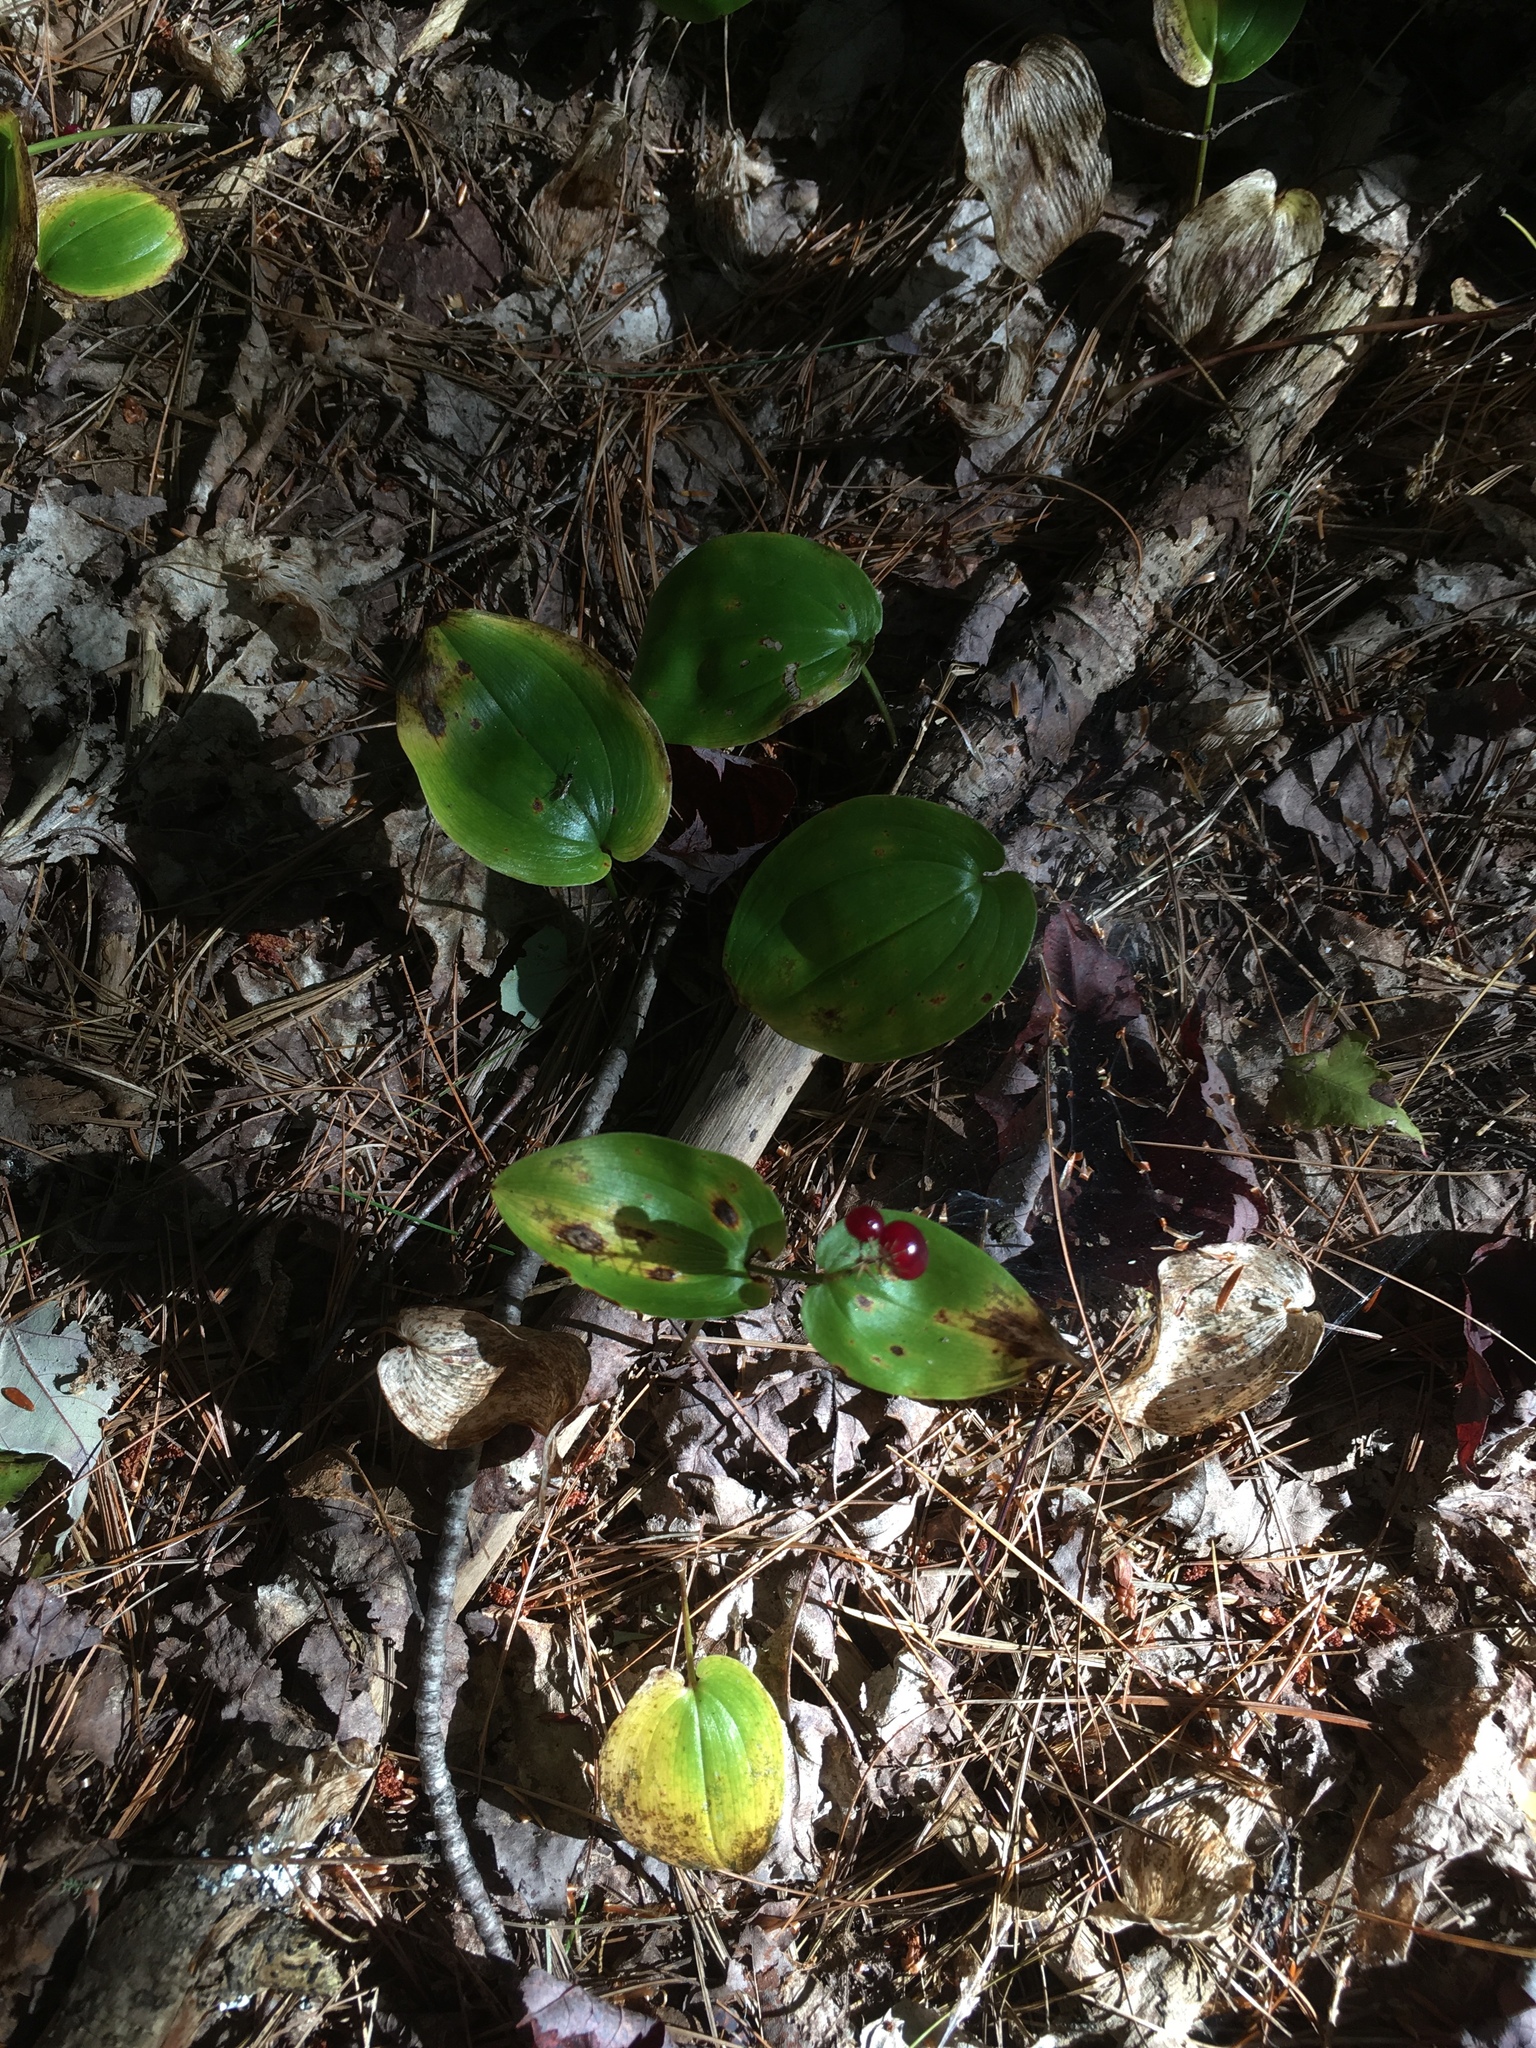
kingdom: Plantae
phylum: Tracheophyta
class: Liliopsida
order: Asparagales
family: Asparagaceae
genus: Maianthemum
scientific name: Maianthemum canadense
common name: False lily-of-the-valley
